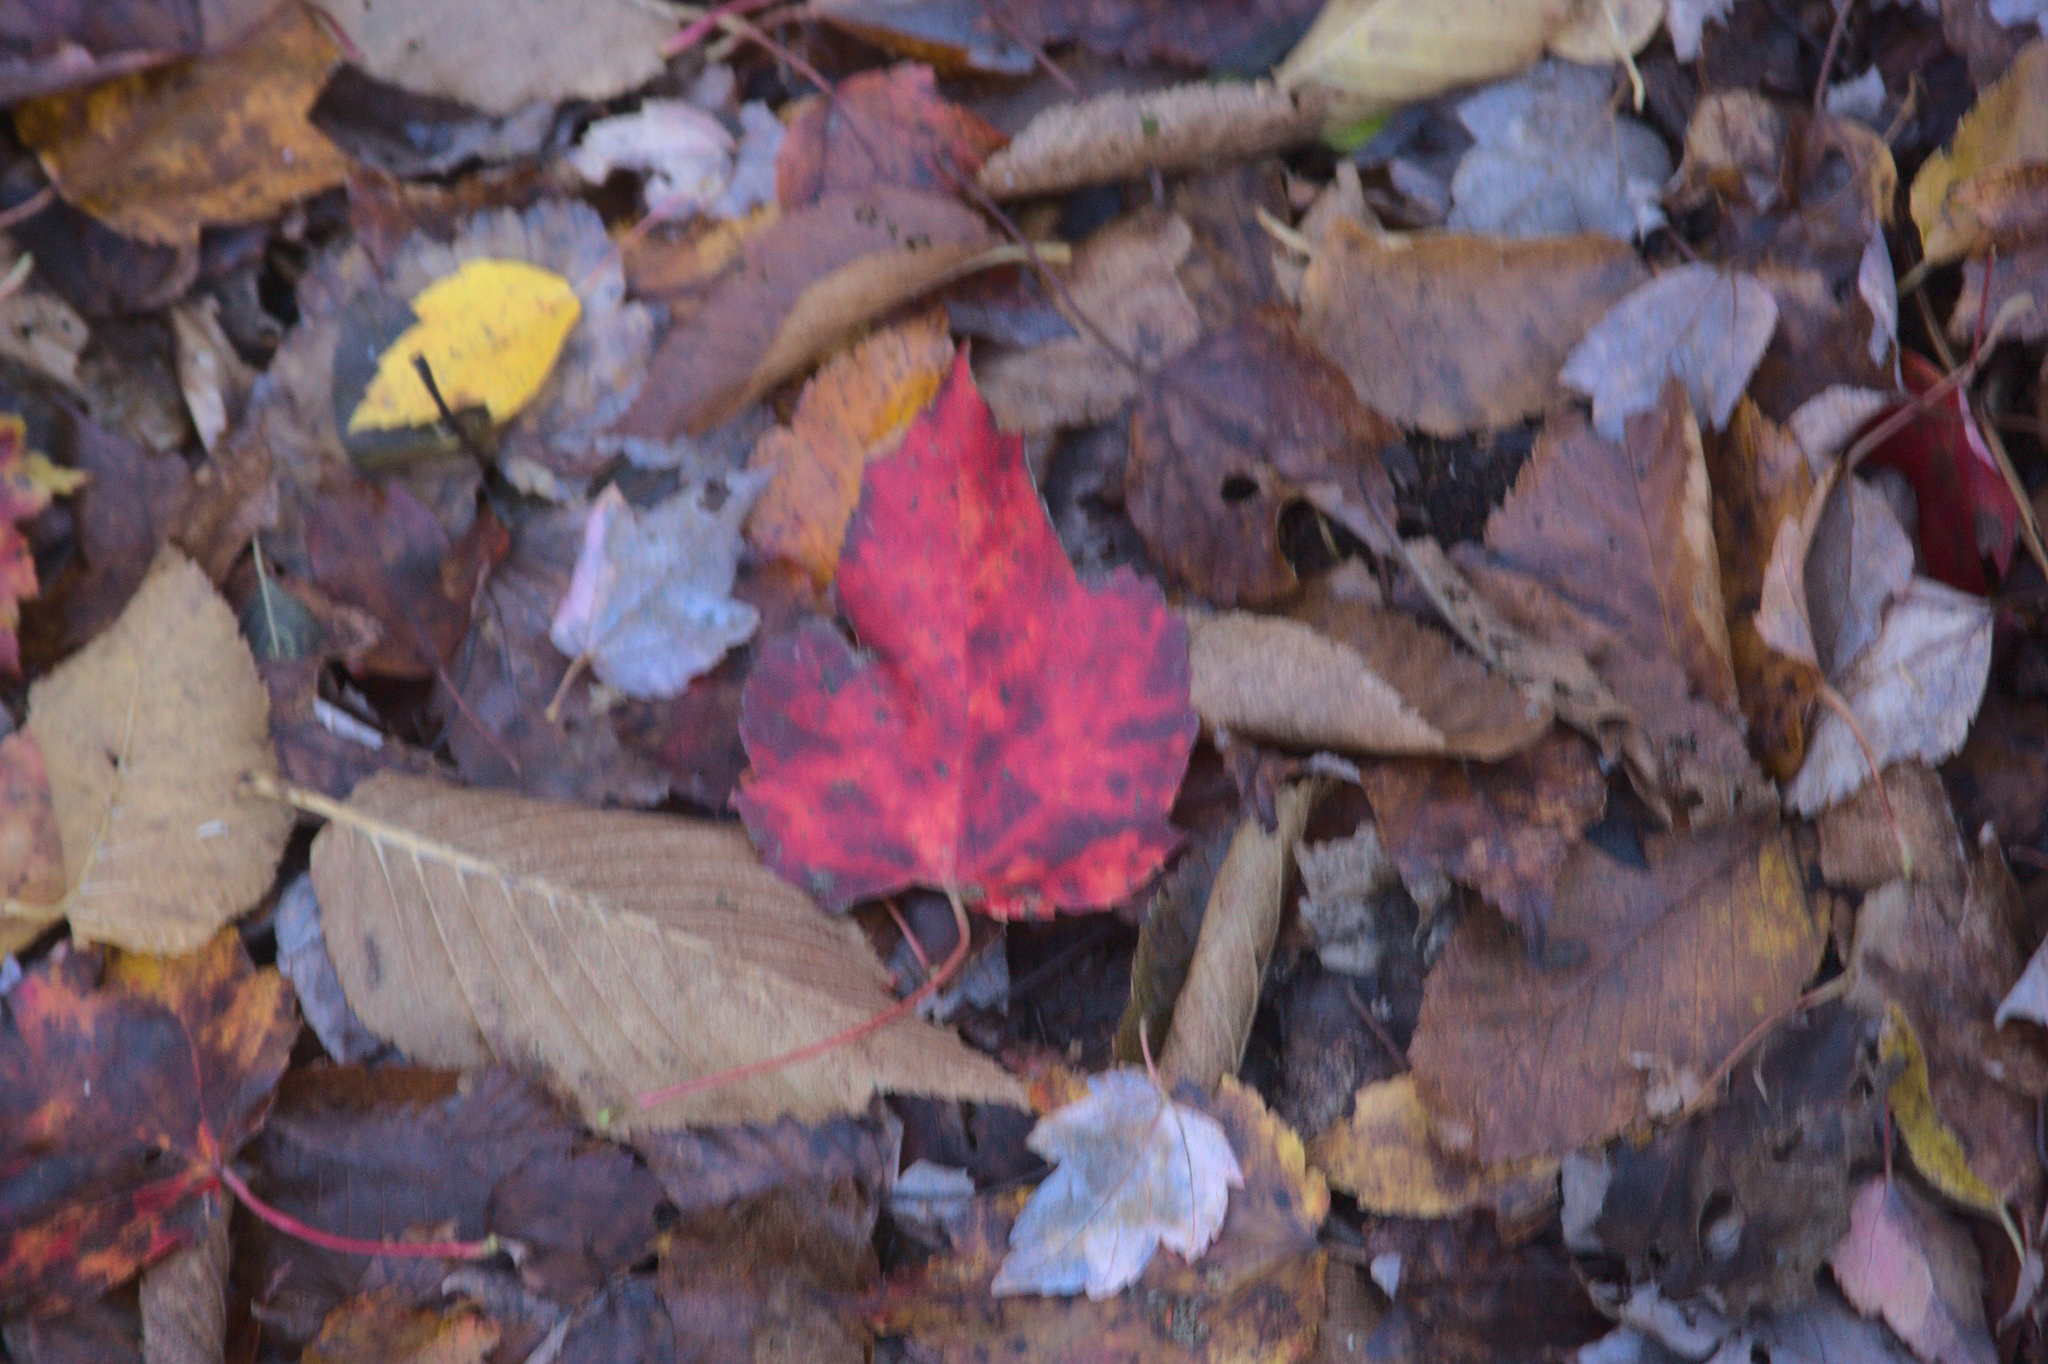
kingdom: Plantae
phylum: Tracheophyta
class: Magnoliopsida
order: Sapindales
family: Sapindaceae
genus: Acer
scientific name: Acer rubrum
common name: Red maple
